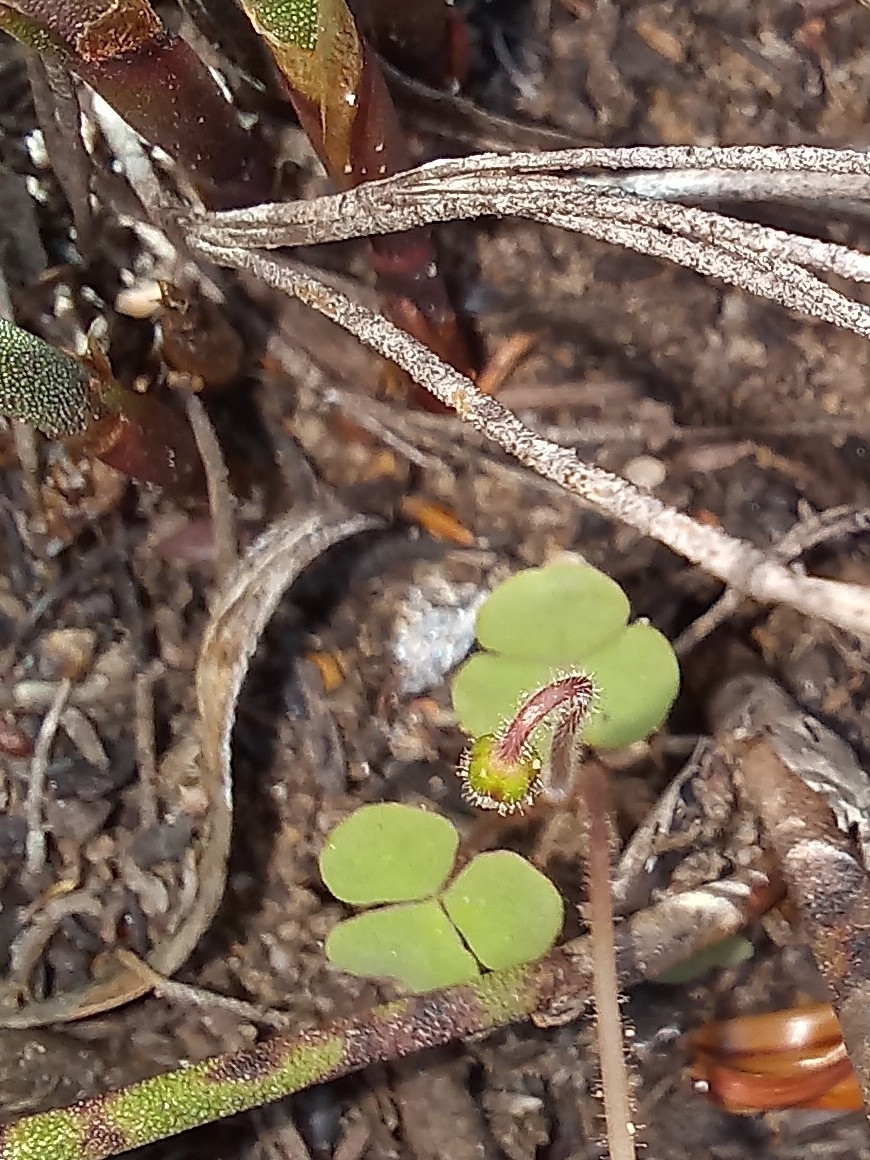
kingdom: Plantae
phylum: Tracheophyta
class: Magnoliopsida
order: Oxalidales
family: Oxalidaceae
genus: Oxalis
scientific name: Oxalis punctata
